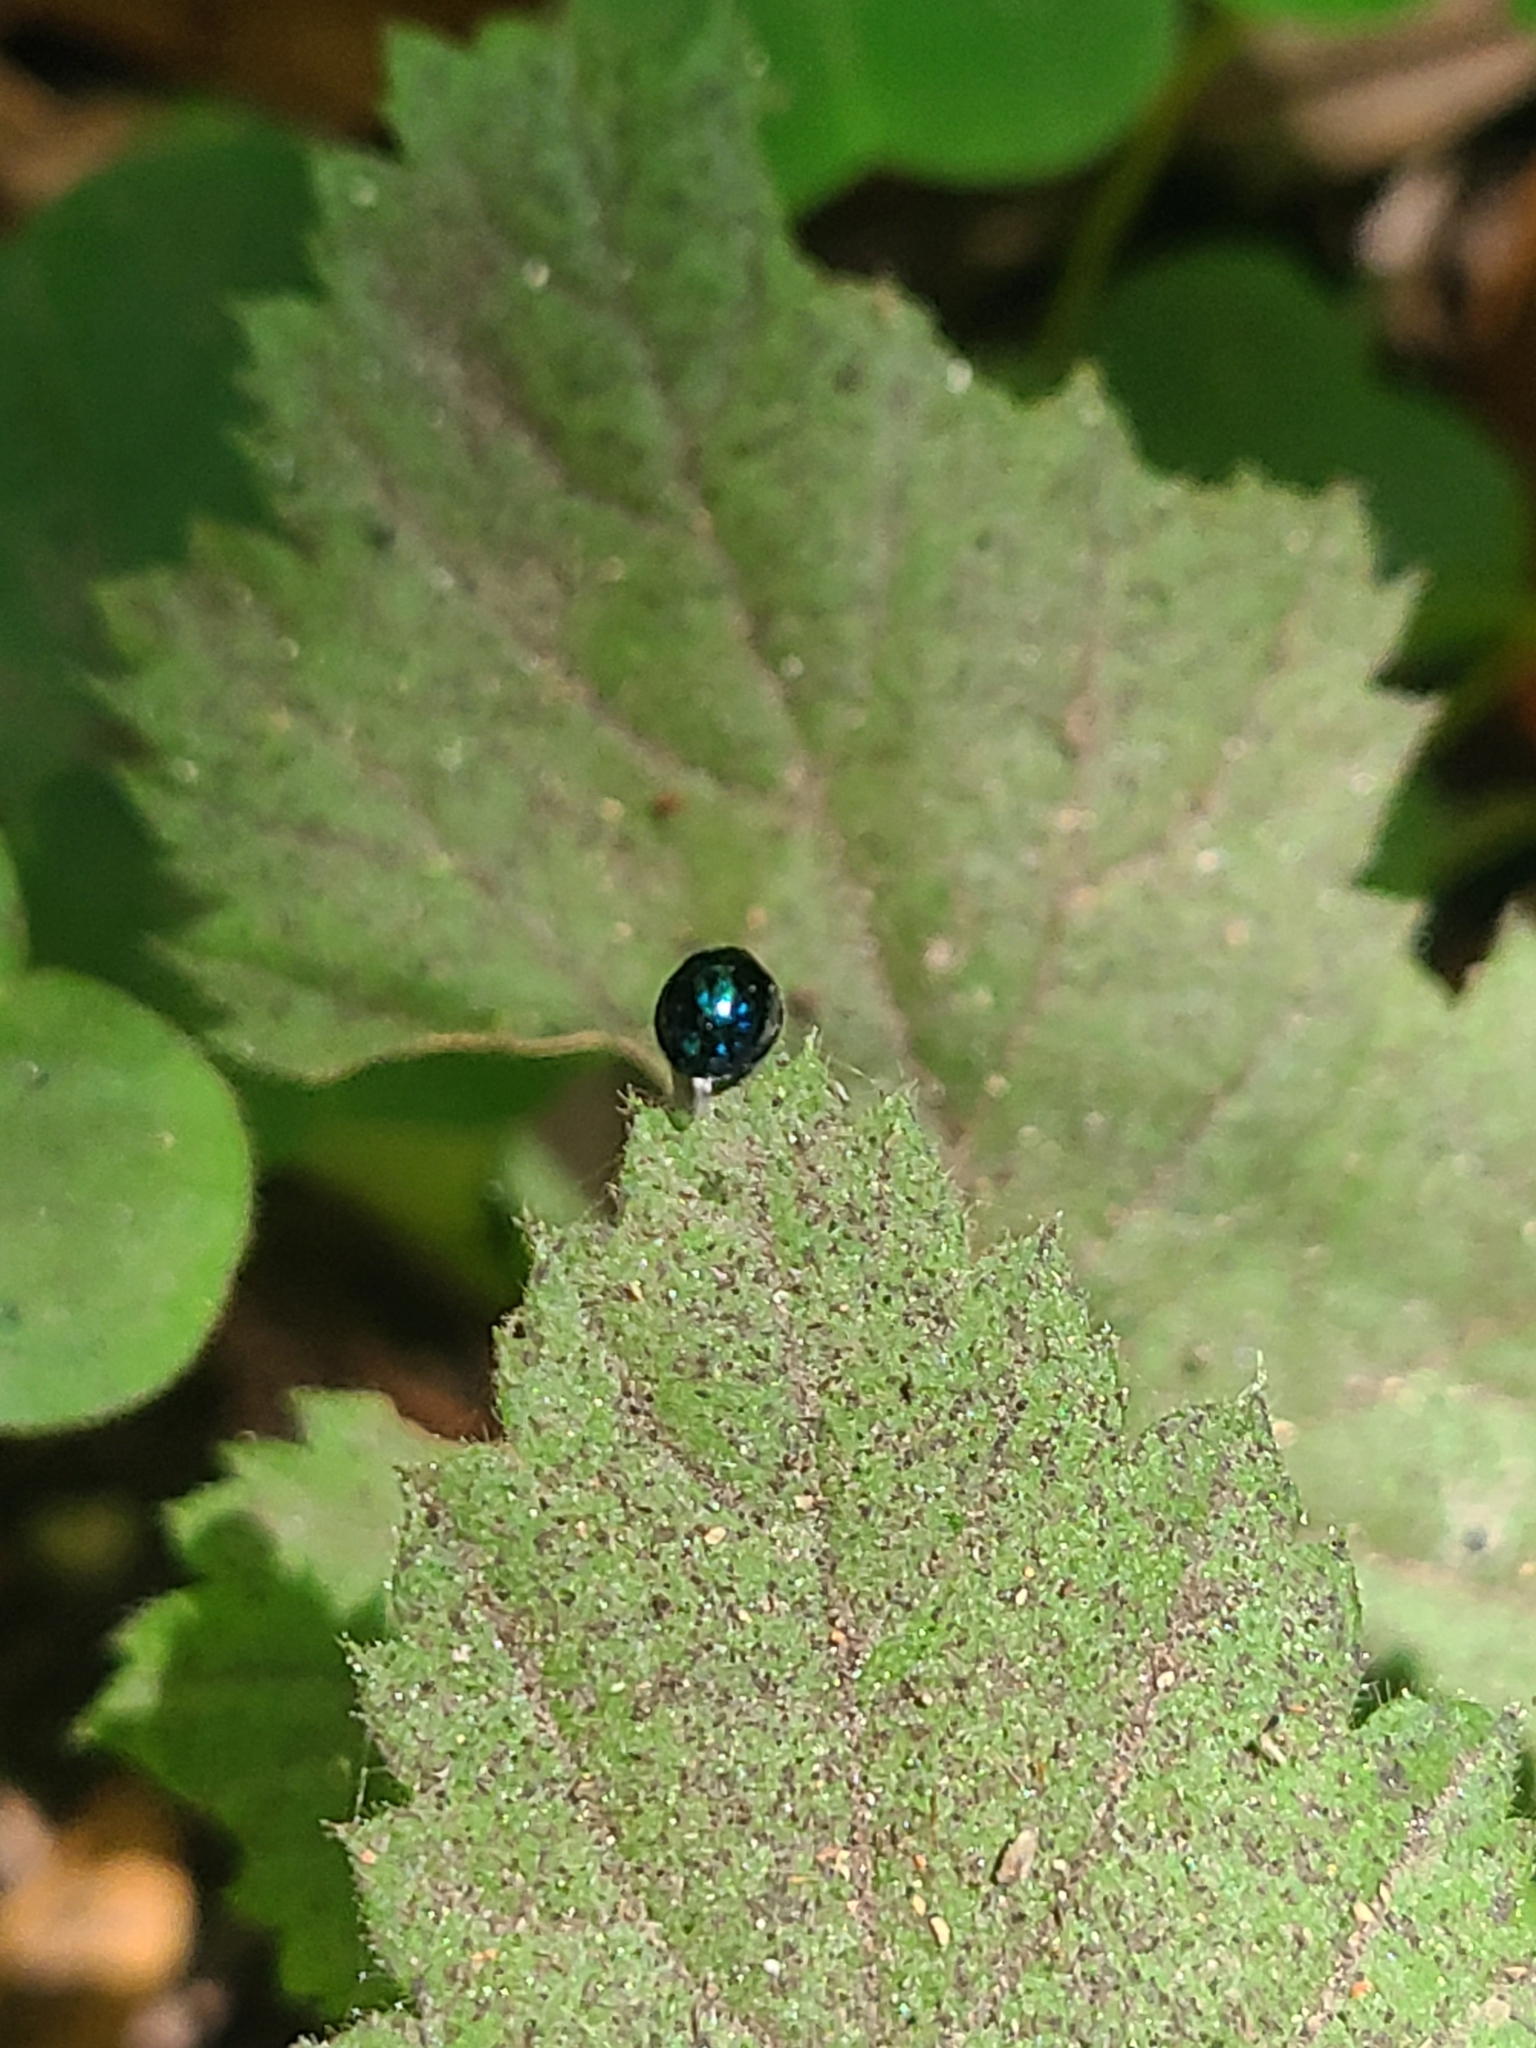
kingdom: Animalia
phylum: Arthropoda
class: Insecta
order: Coleoptera
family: Coccinellidae
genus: Halmus
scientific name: Halmus chalybeus
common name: Steel blue ladybird beetle
